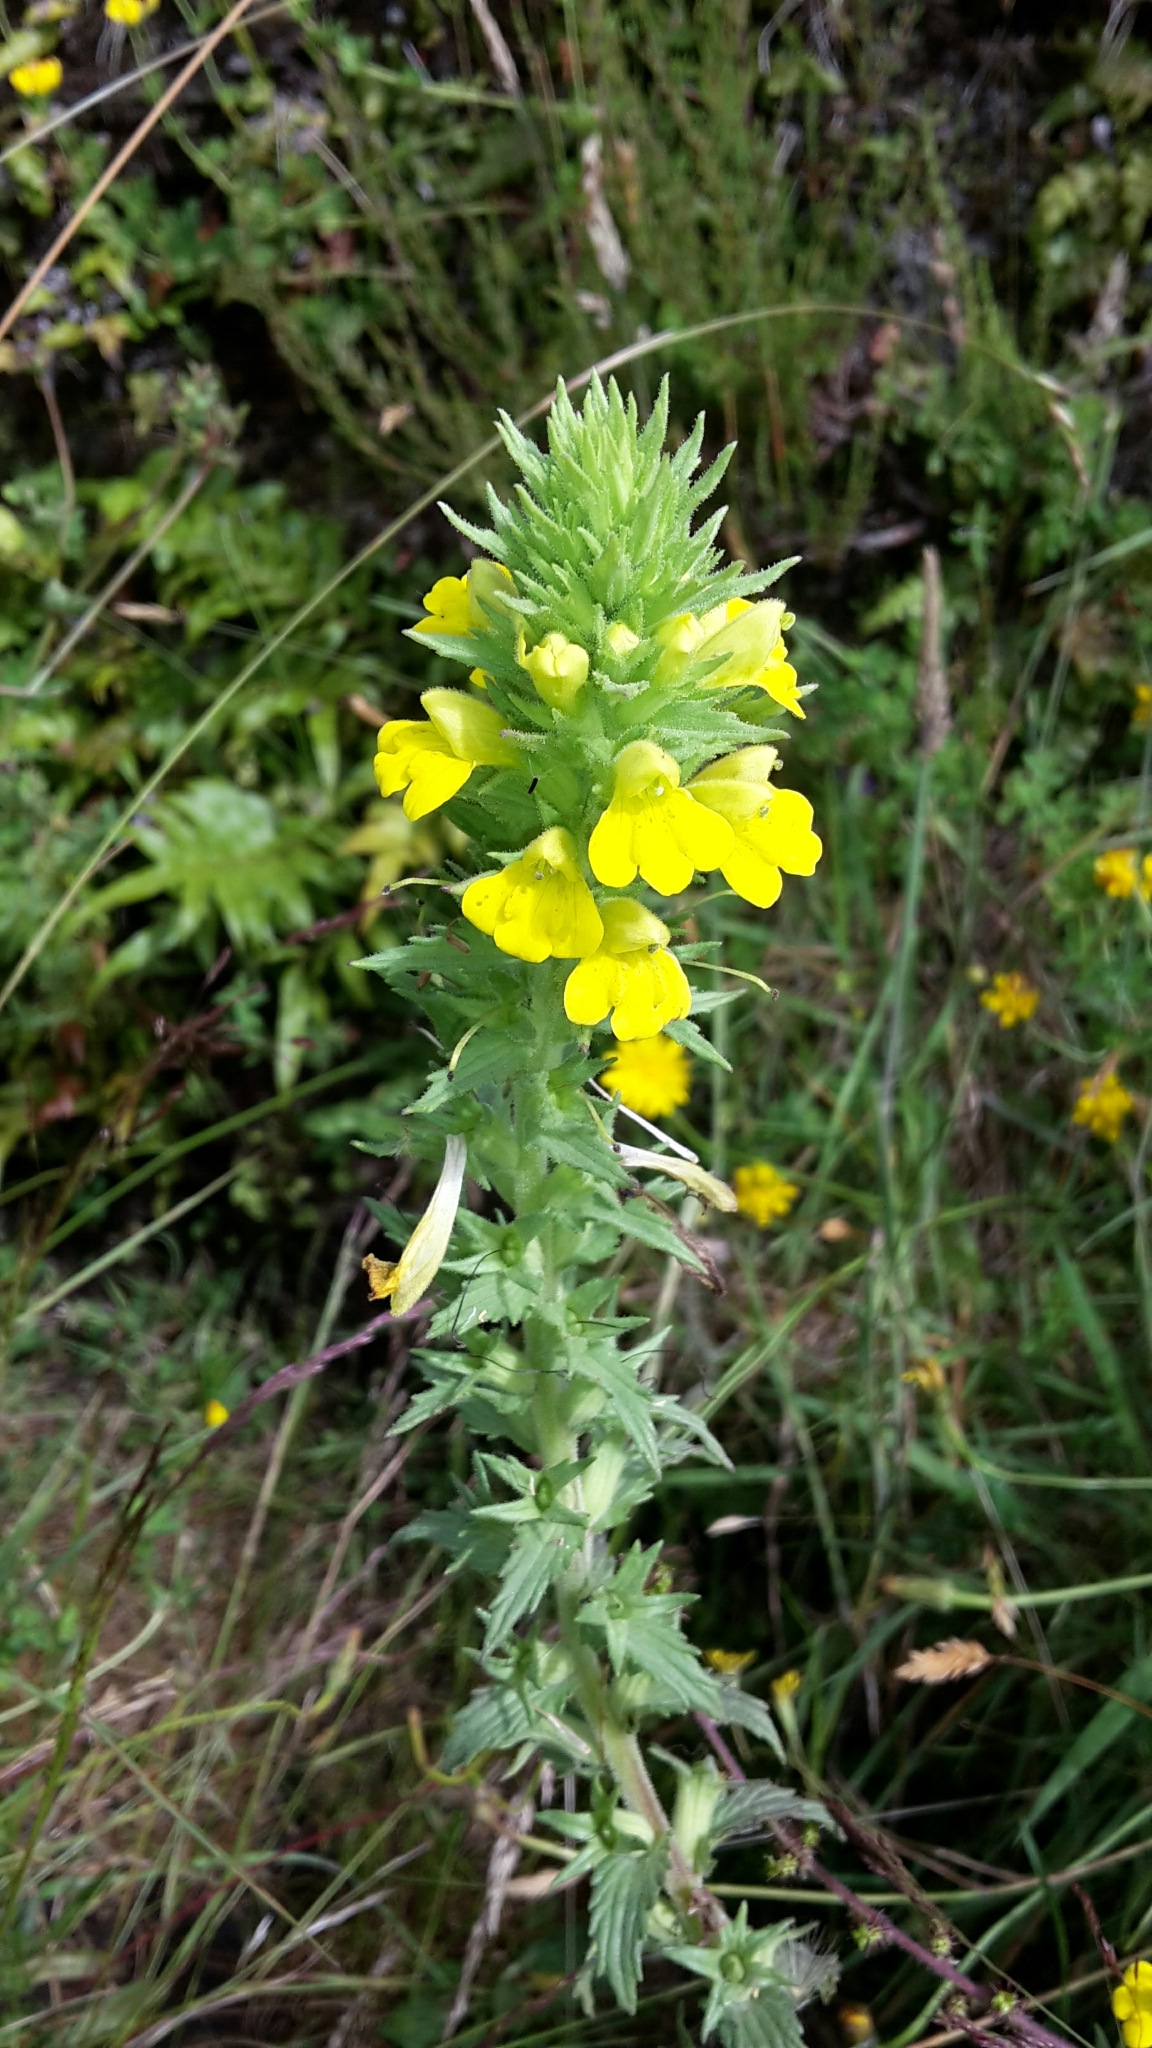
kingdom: Plantae
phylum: Tracheophyta
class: Magnoliopsida
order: Lamiales
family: Orobanchaceae
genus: Bellardia
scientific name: Bellardia viscosa
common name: Sticky parentucellia
